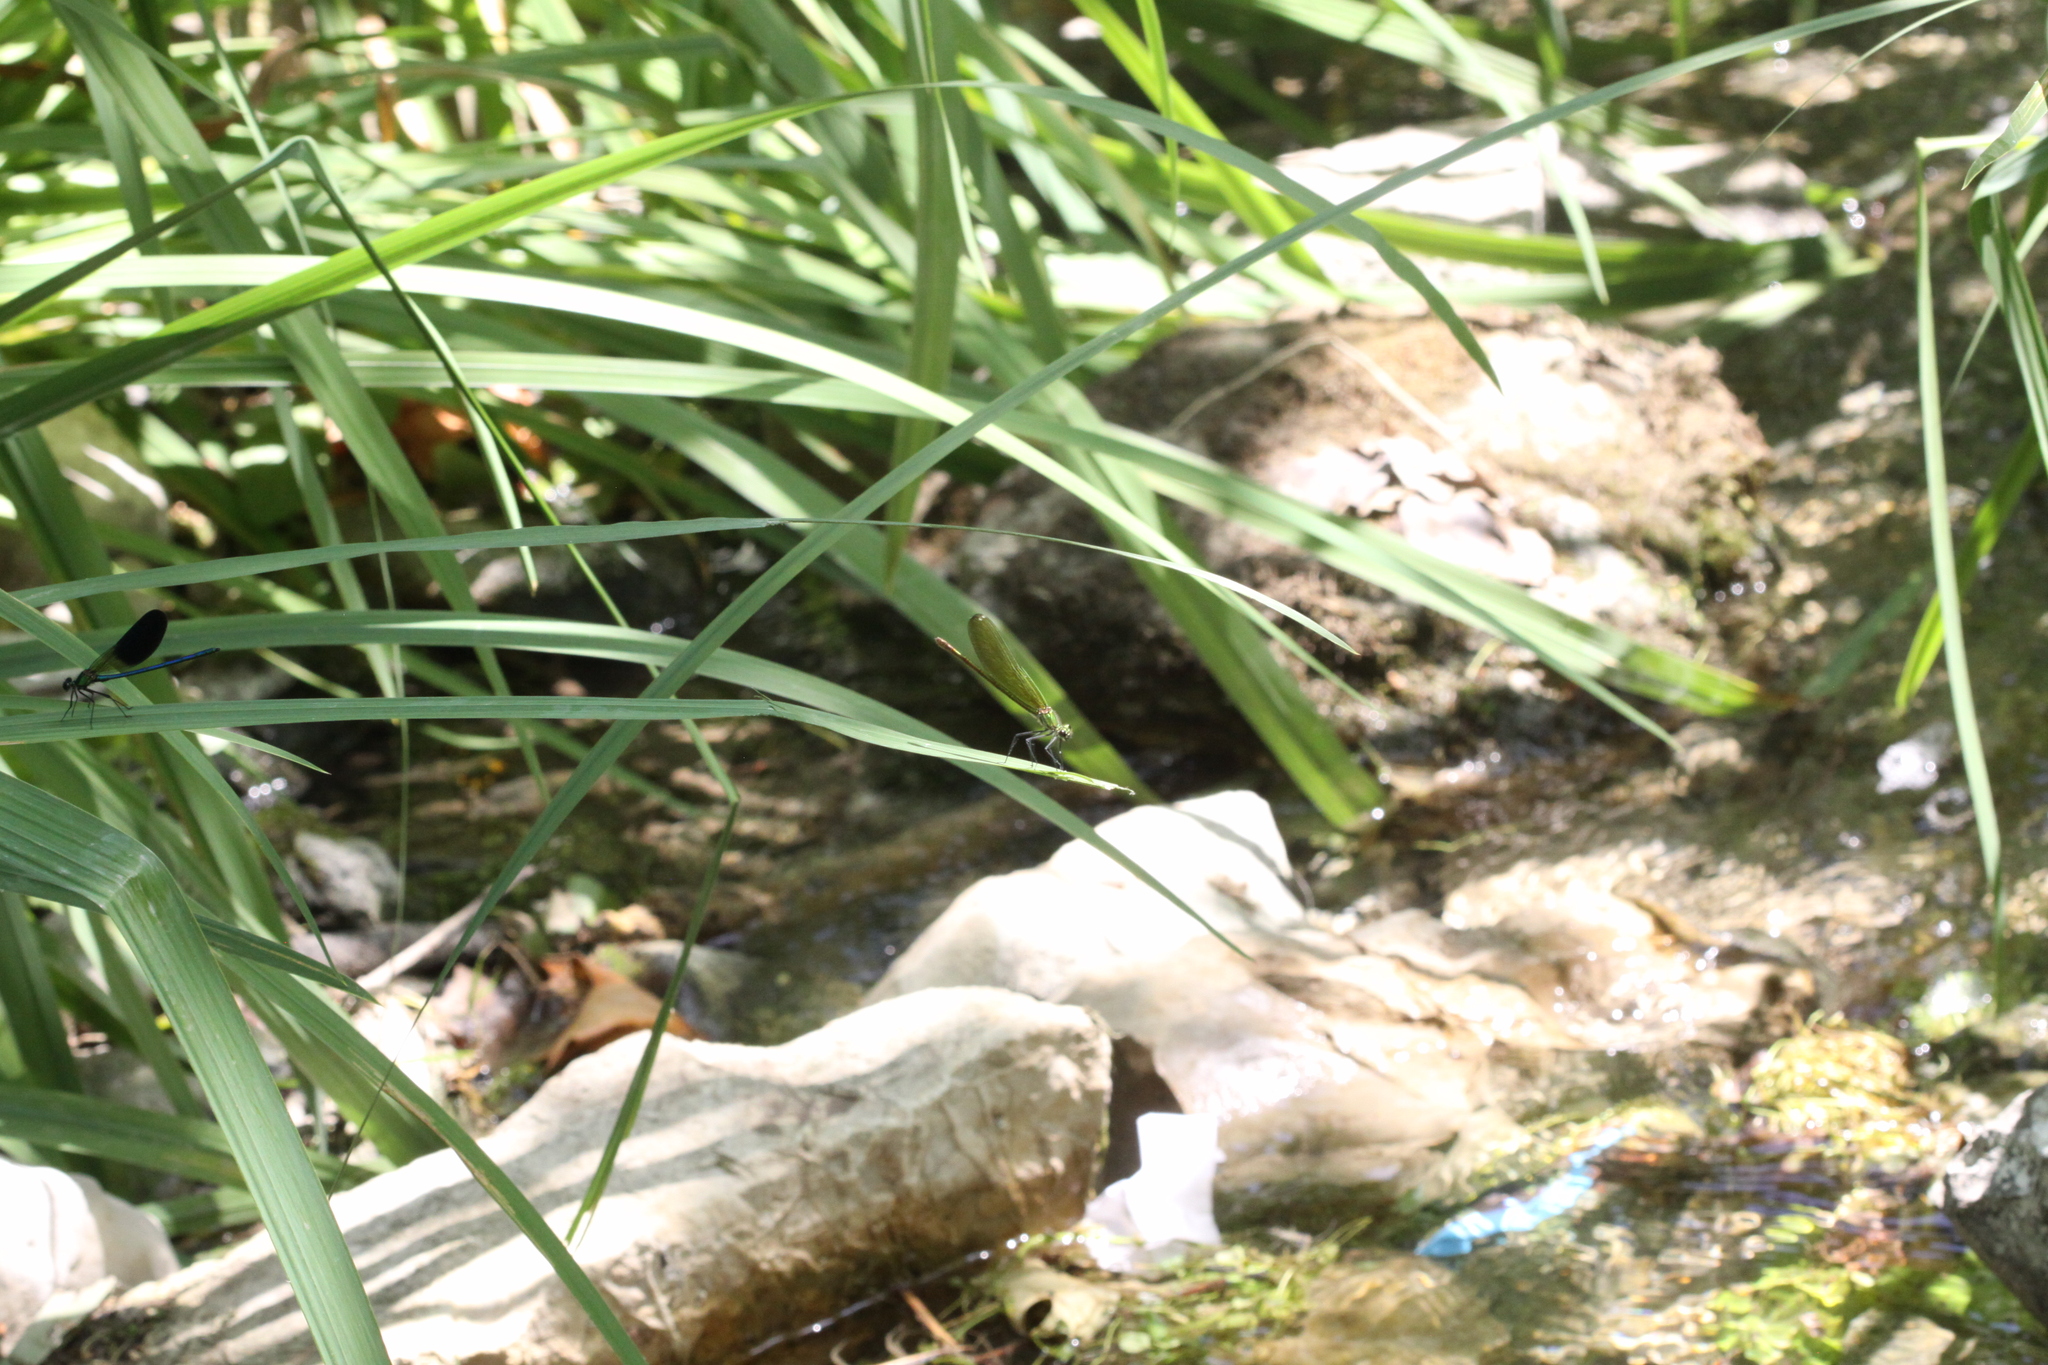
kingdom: Animalia
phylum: Arthropoda
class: Insecta
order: Odonata
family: Calopterygidae
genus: Calopteryx
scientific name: Calopteryx xanthostoma
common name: Western demoiselle
